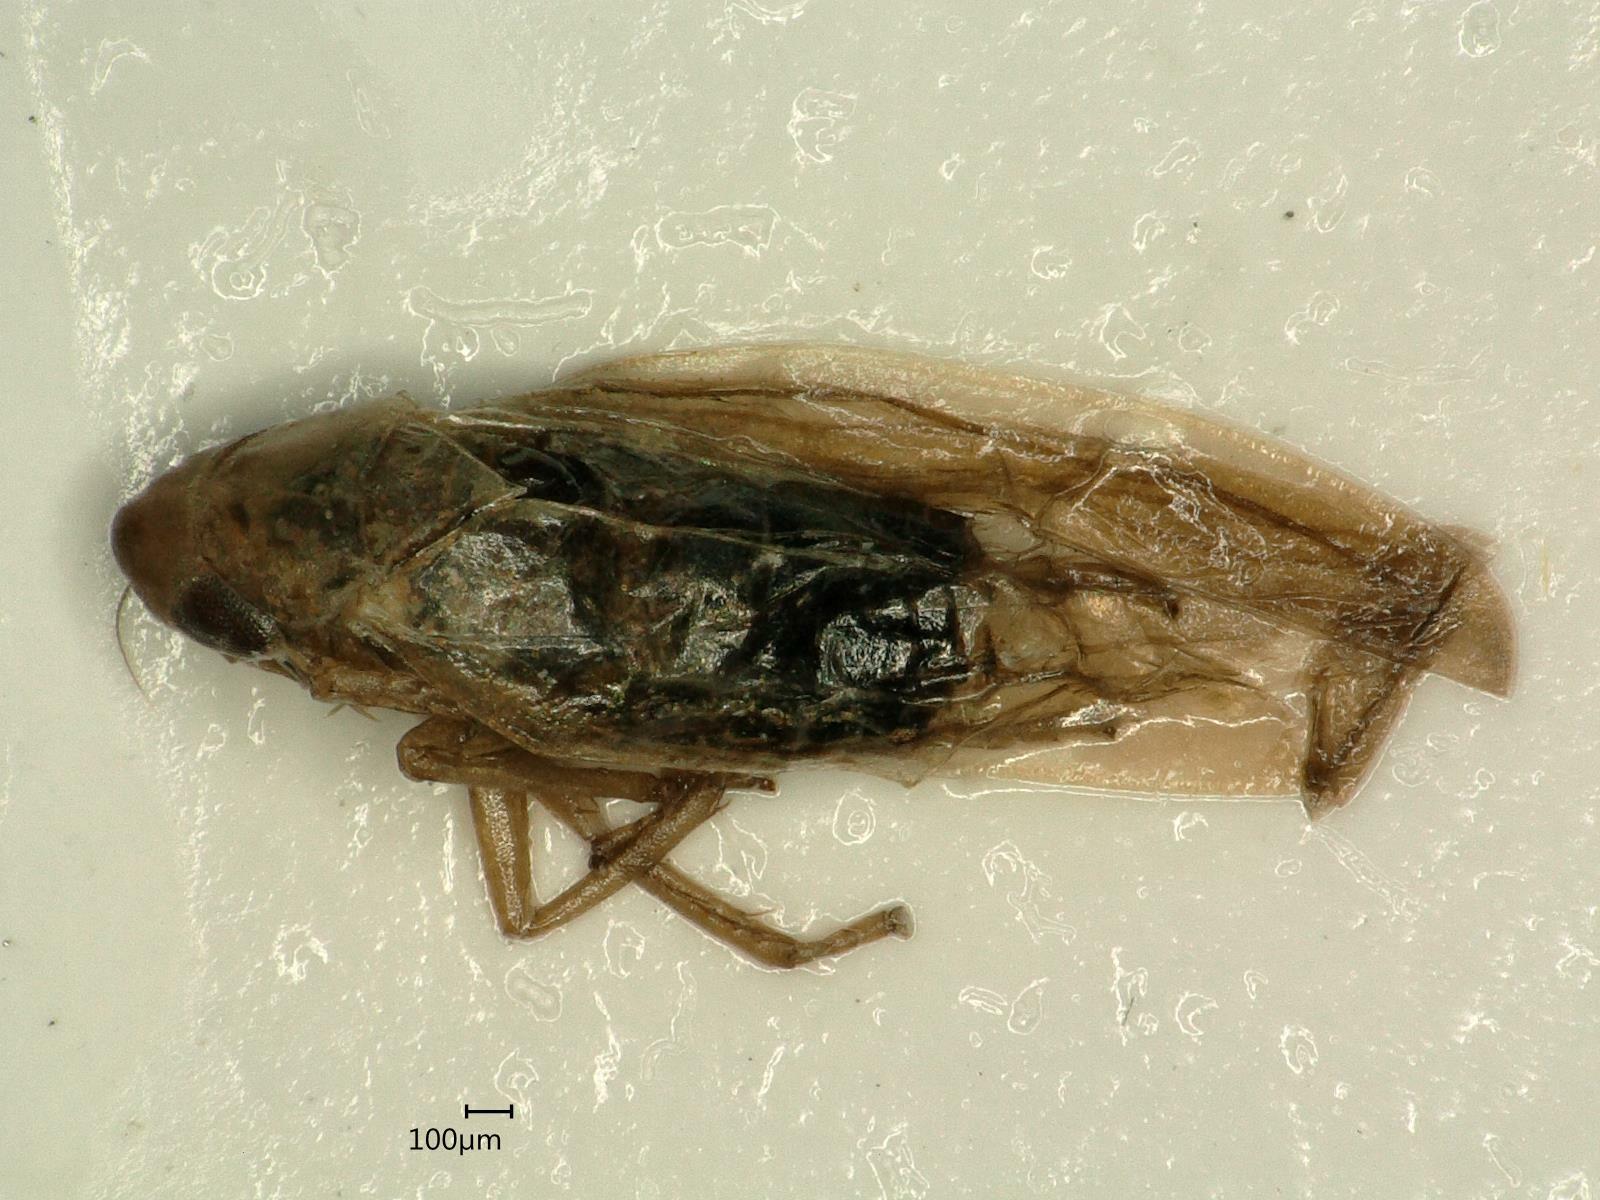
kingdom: Animalia
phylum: Arthropoda
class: Insecta
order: Hemiptera
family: Cicadellidae
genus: Dikraneura
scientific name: Dikraneura variata
